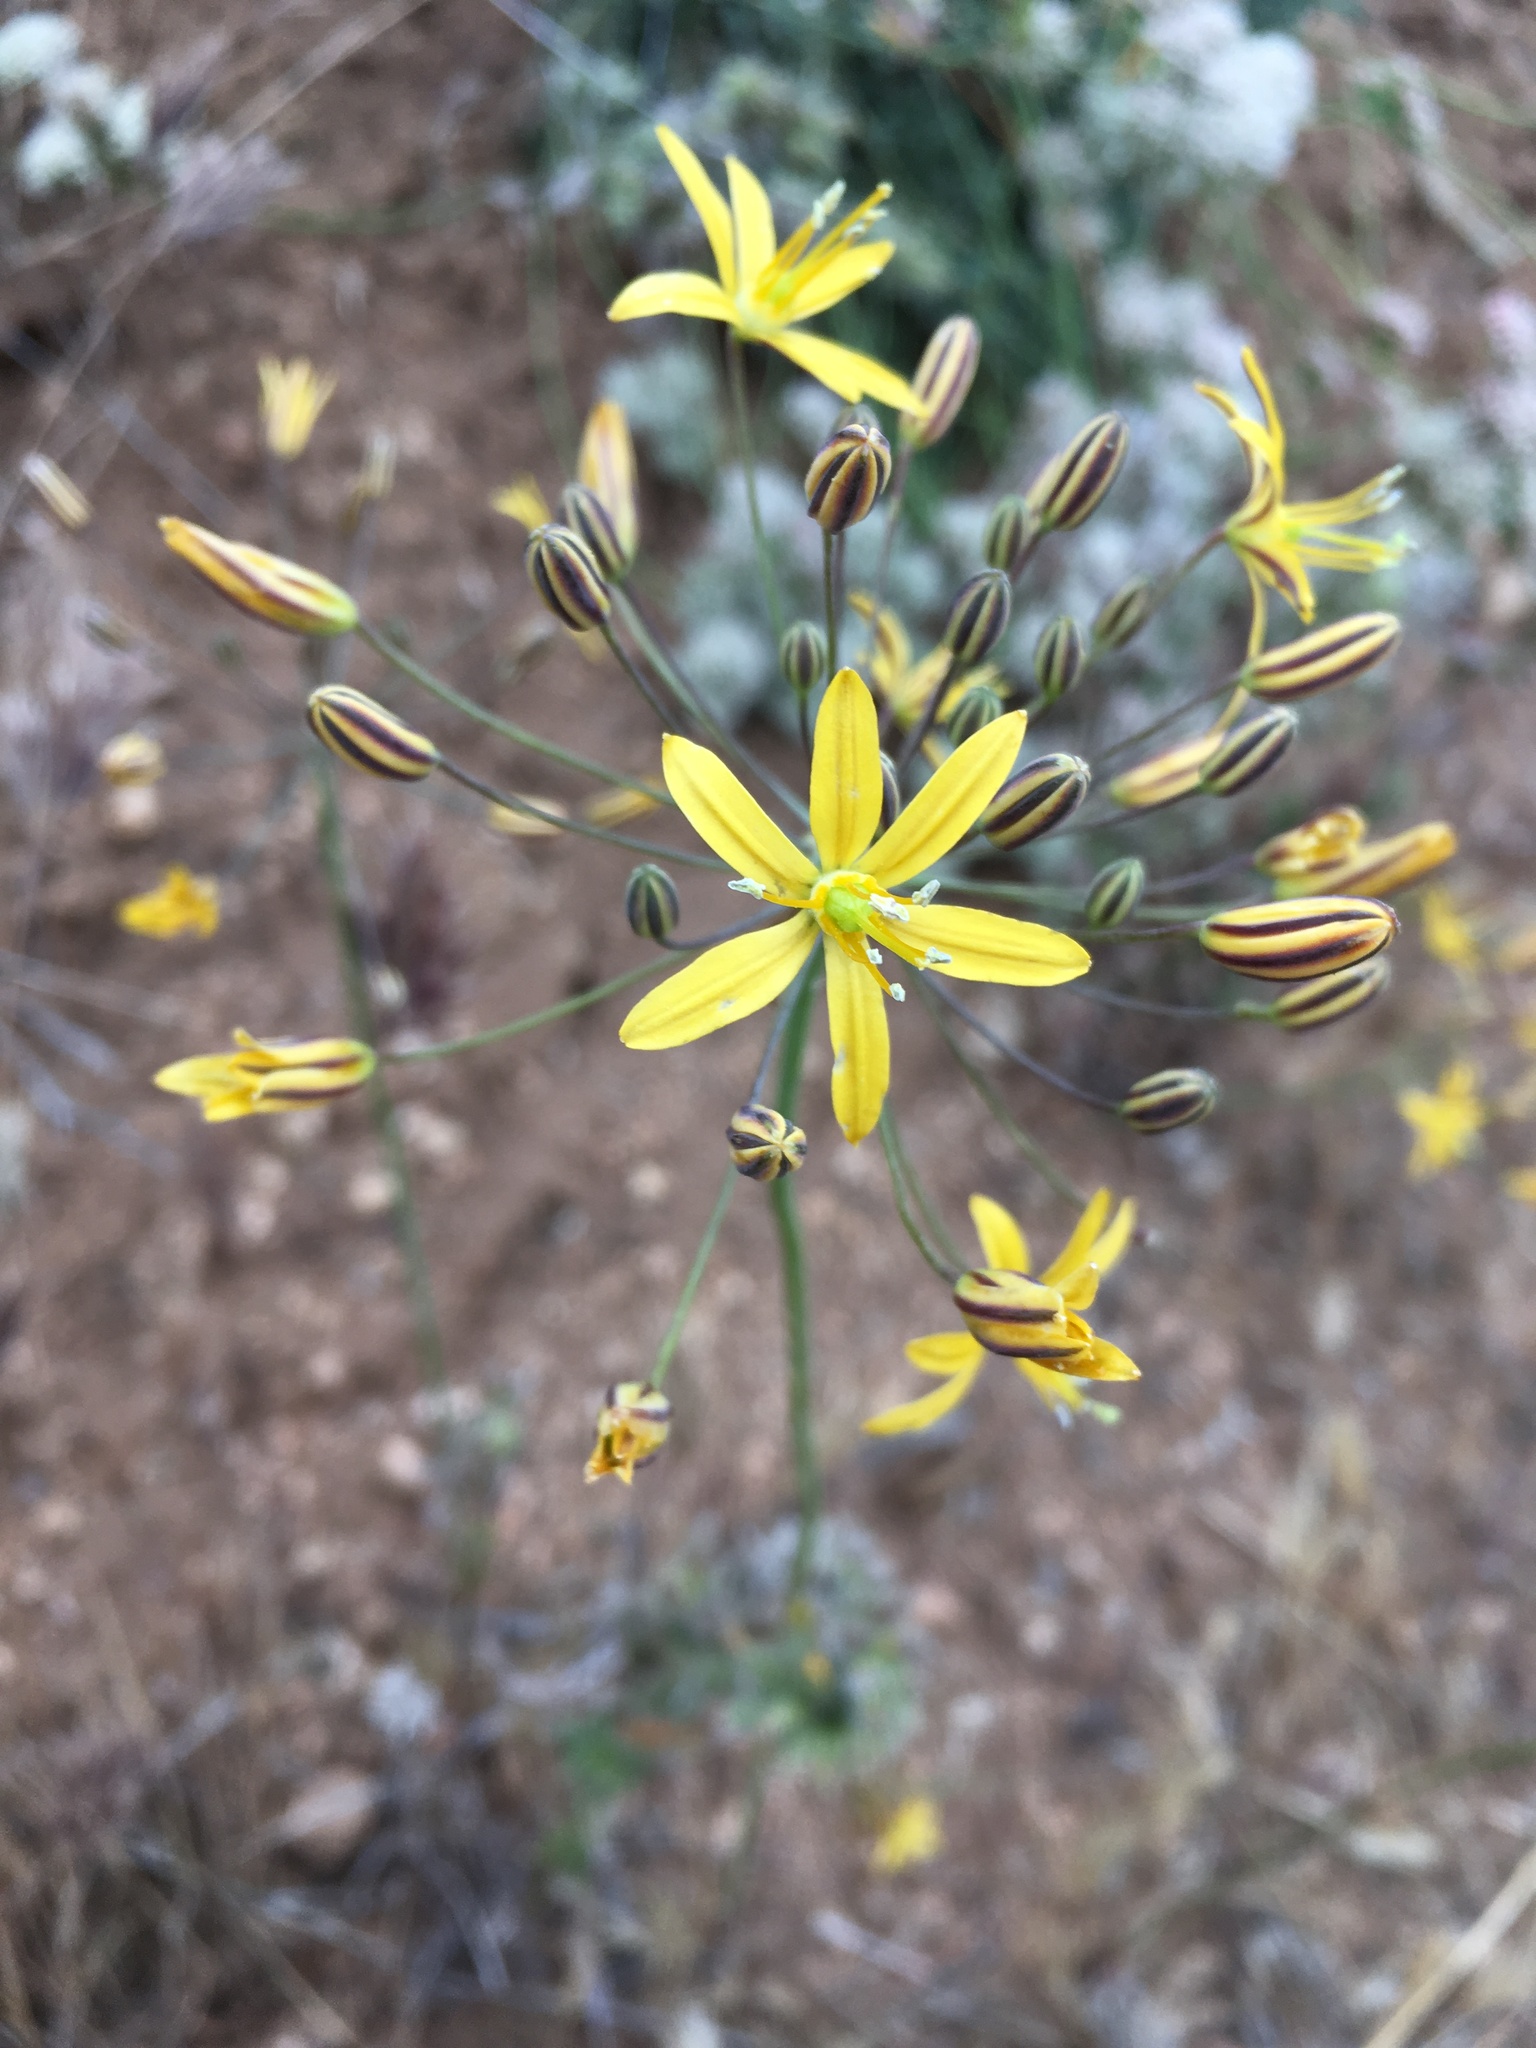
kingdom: Plantae
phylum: Tracheophyta
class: Liliopsida
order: Asparagales
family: Asparagaceae
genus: Bloomeria
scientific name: Bloomeria crocea
